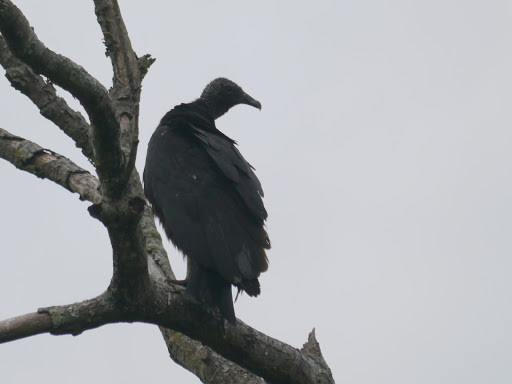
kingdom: Animalia
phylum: Chordata
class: Aves
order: Accipitriformes
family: Cathartidae
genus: Coragyps
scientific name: Coragyps atratus
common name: Black vulture
